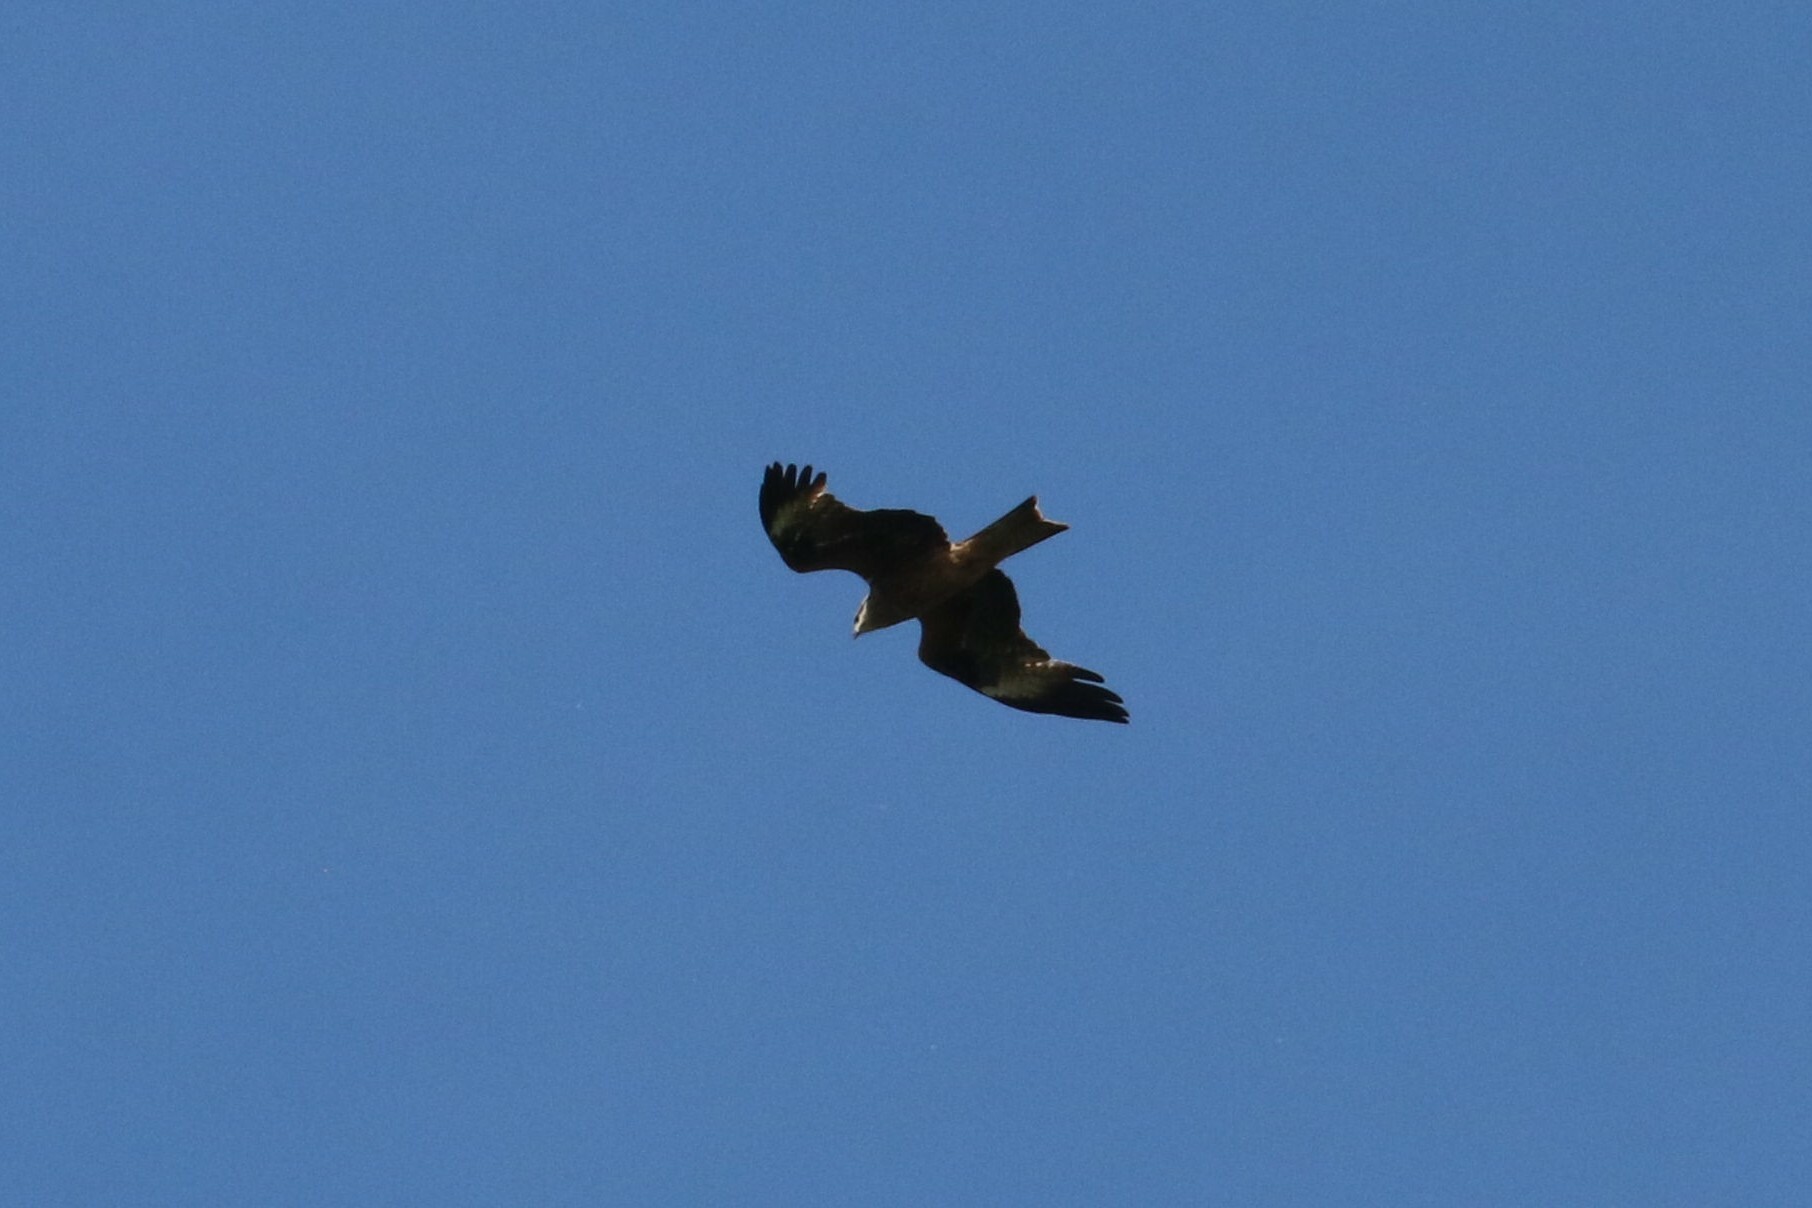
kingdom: Animalia
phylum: Chordata
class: Aves
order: Accipitriformes
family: Accipitridae
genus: Milvus
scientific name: Milvus migrans
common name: Black kite
